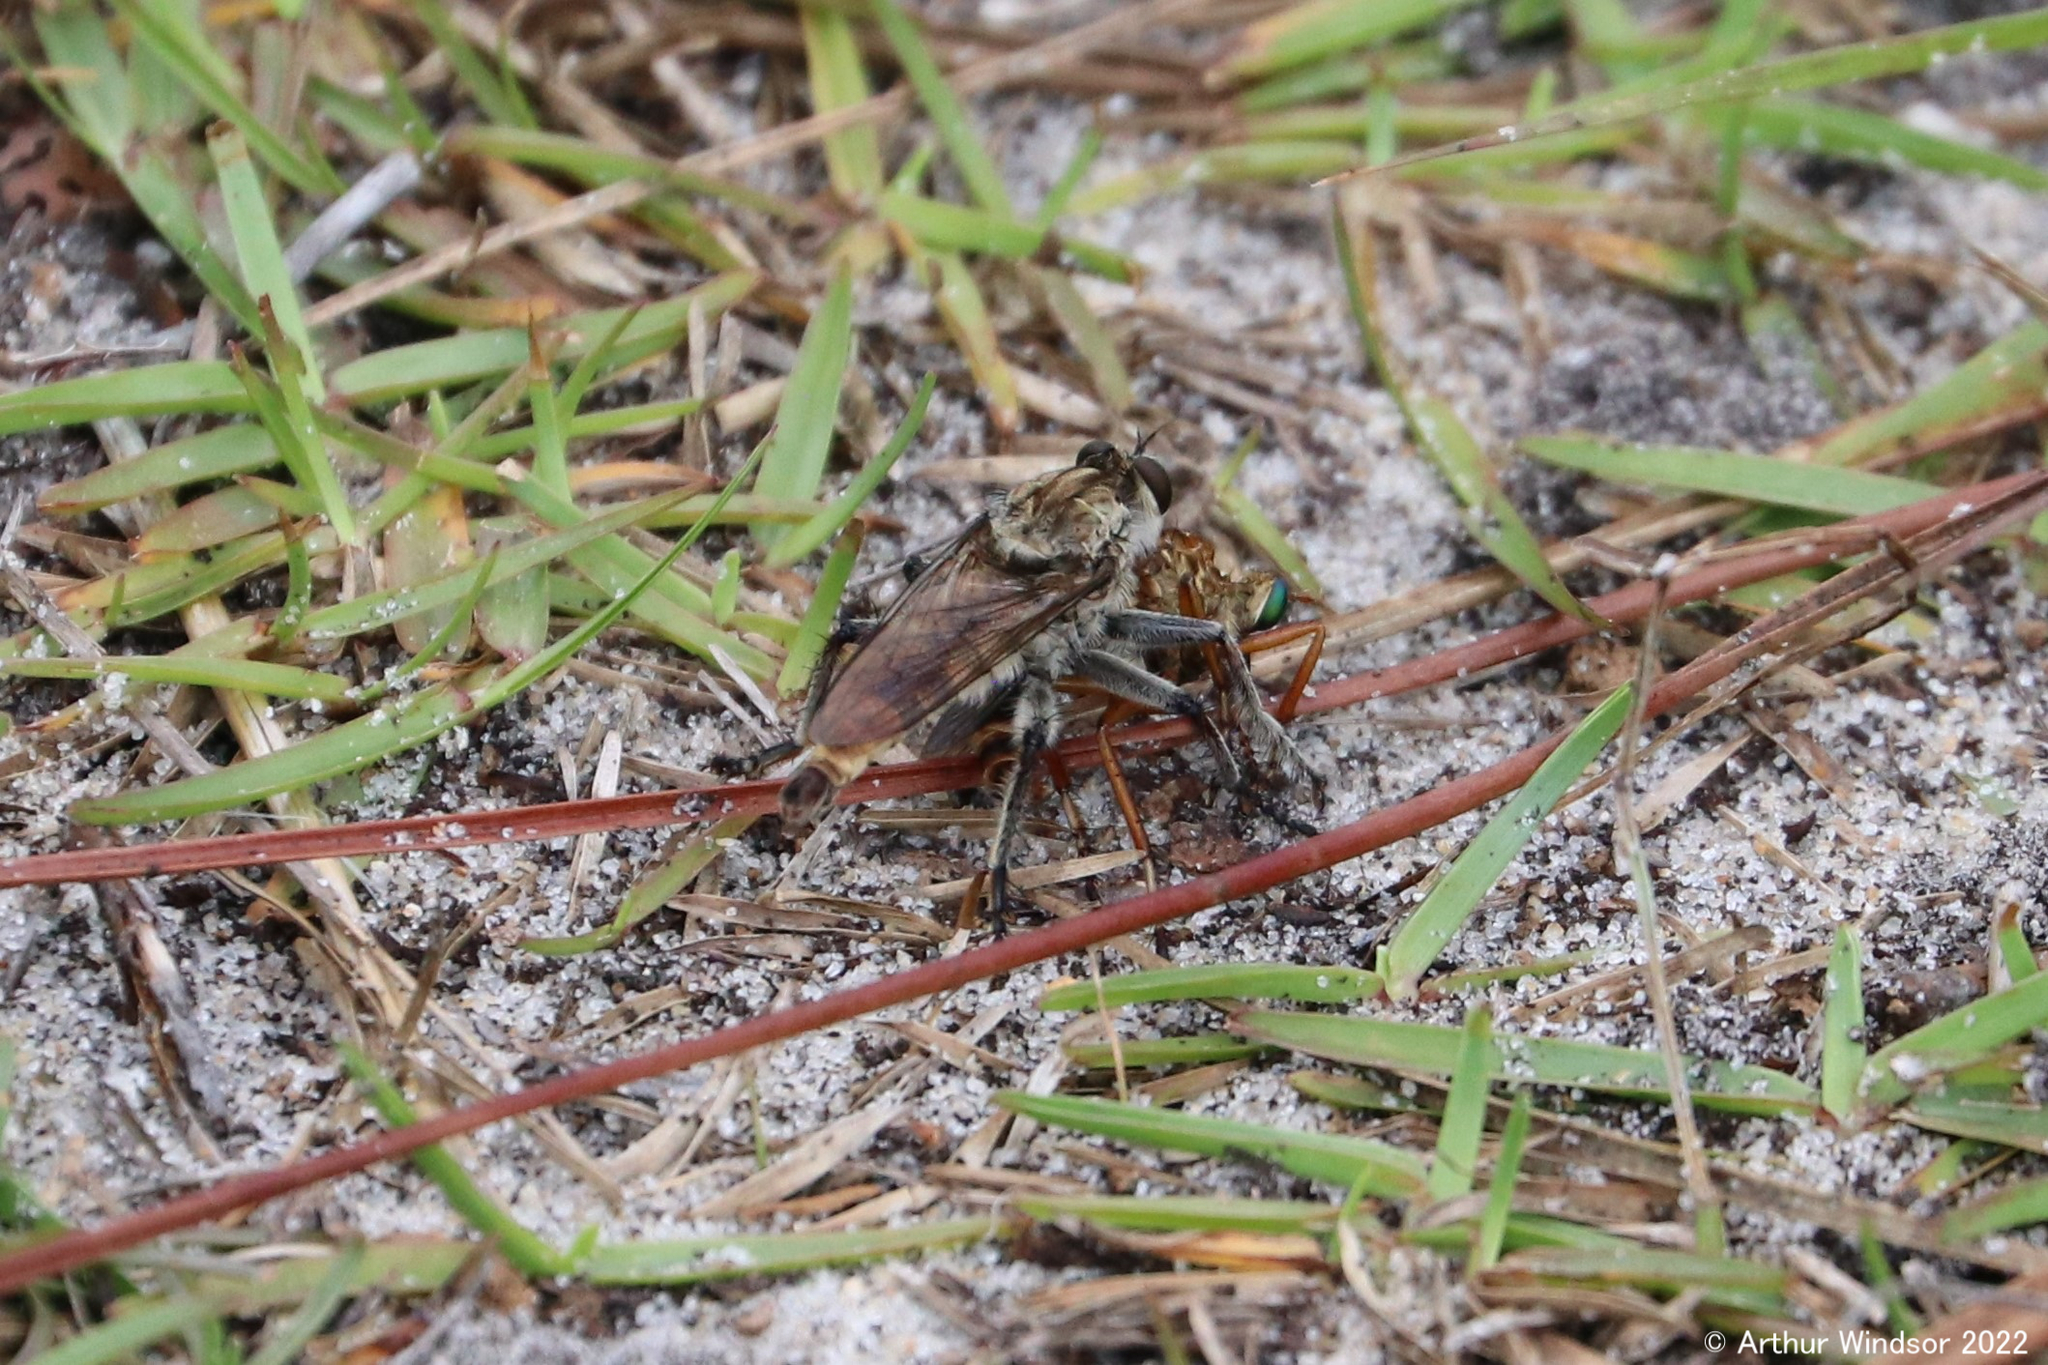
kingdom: Animalia
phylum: Arthropoda
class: Insecta
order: Diptera
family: Asilidae
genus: Triorla
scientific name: Triorla interrupta
